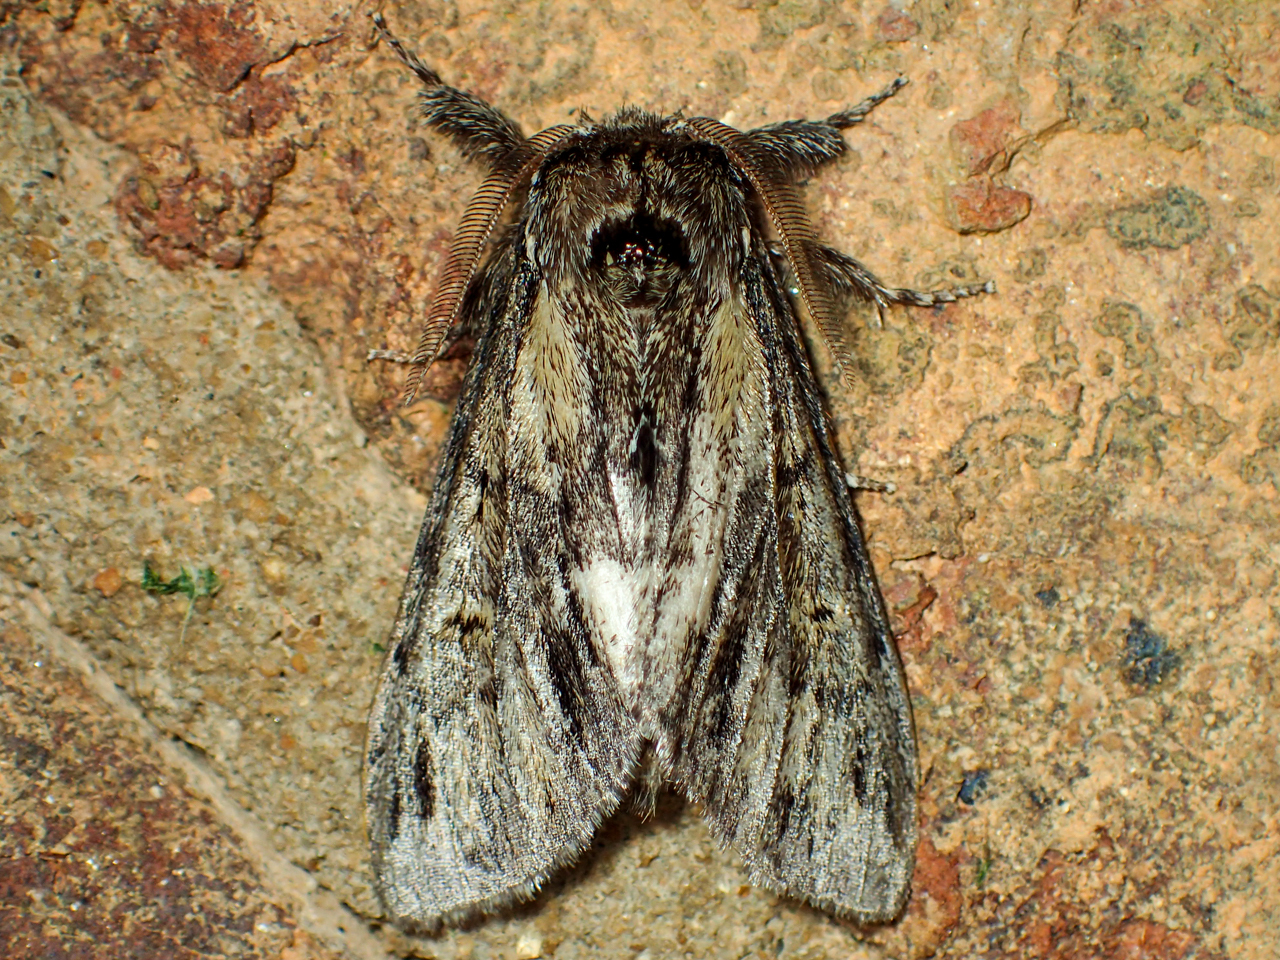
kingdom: Animalia
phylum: Arthropoda
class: Insecta
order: Lepidoptera
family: Notodontidae
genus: Paraeschra
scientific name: Paraeschra georgica
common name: Georgian prominent
